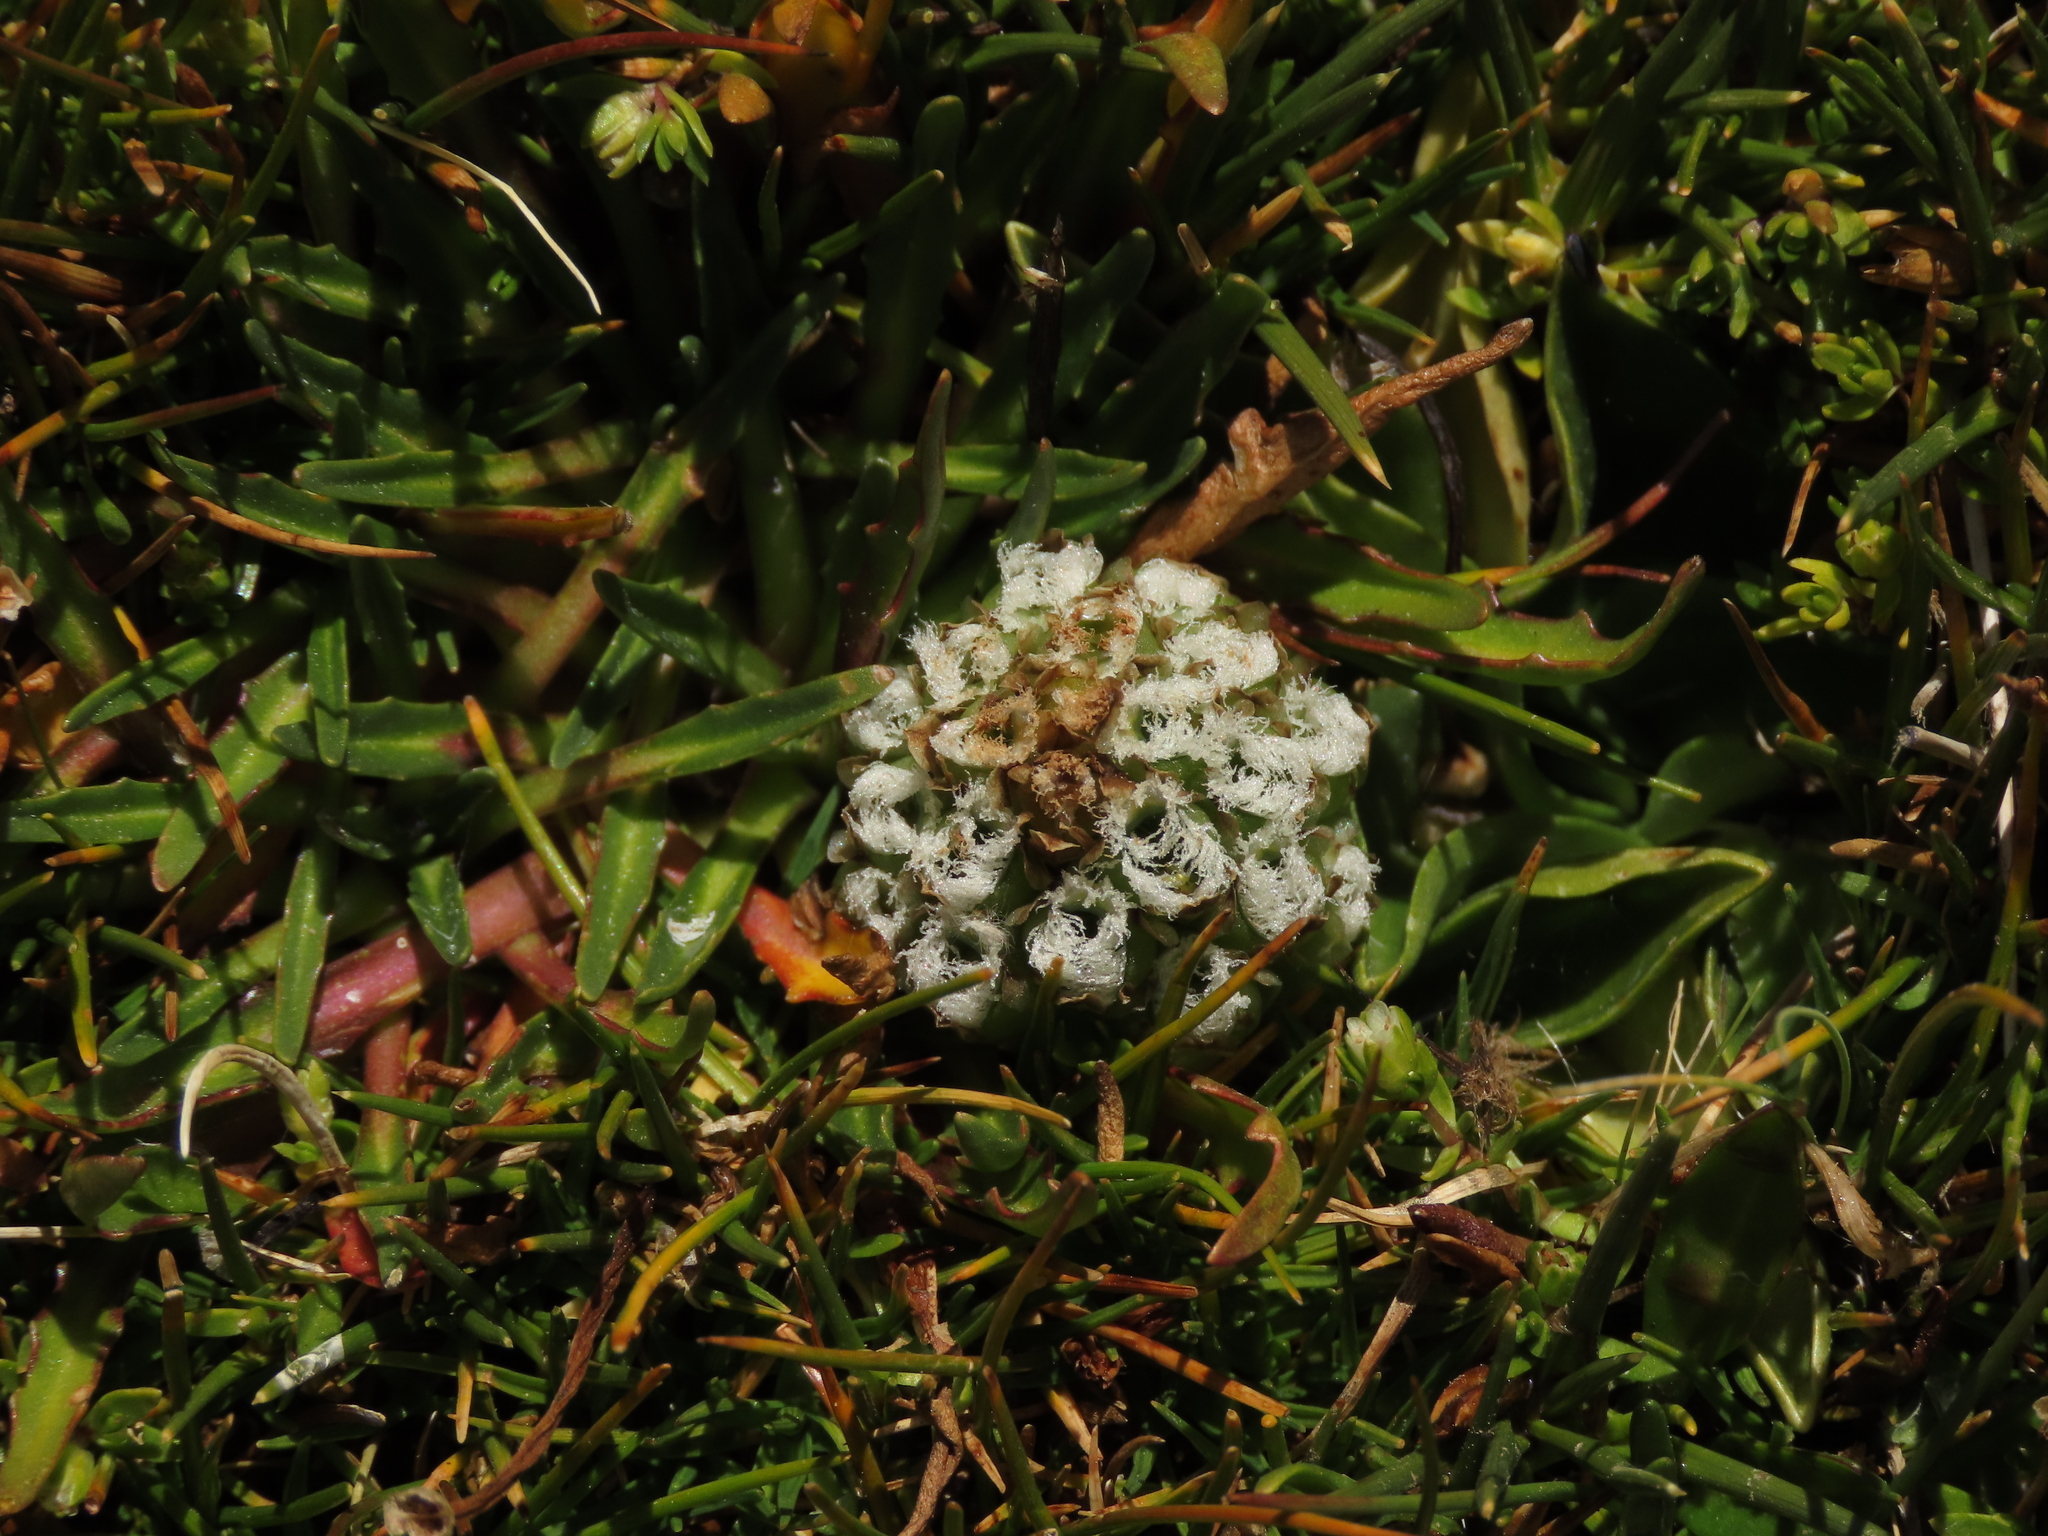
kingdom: Plantae
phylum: Tracheophyta
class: Liliopsida
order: Asparagales
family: Orchidaceae
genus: Myrosmodes
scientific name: Myrosmodes nervosa
